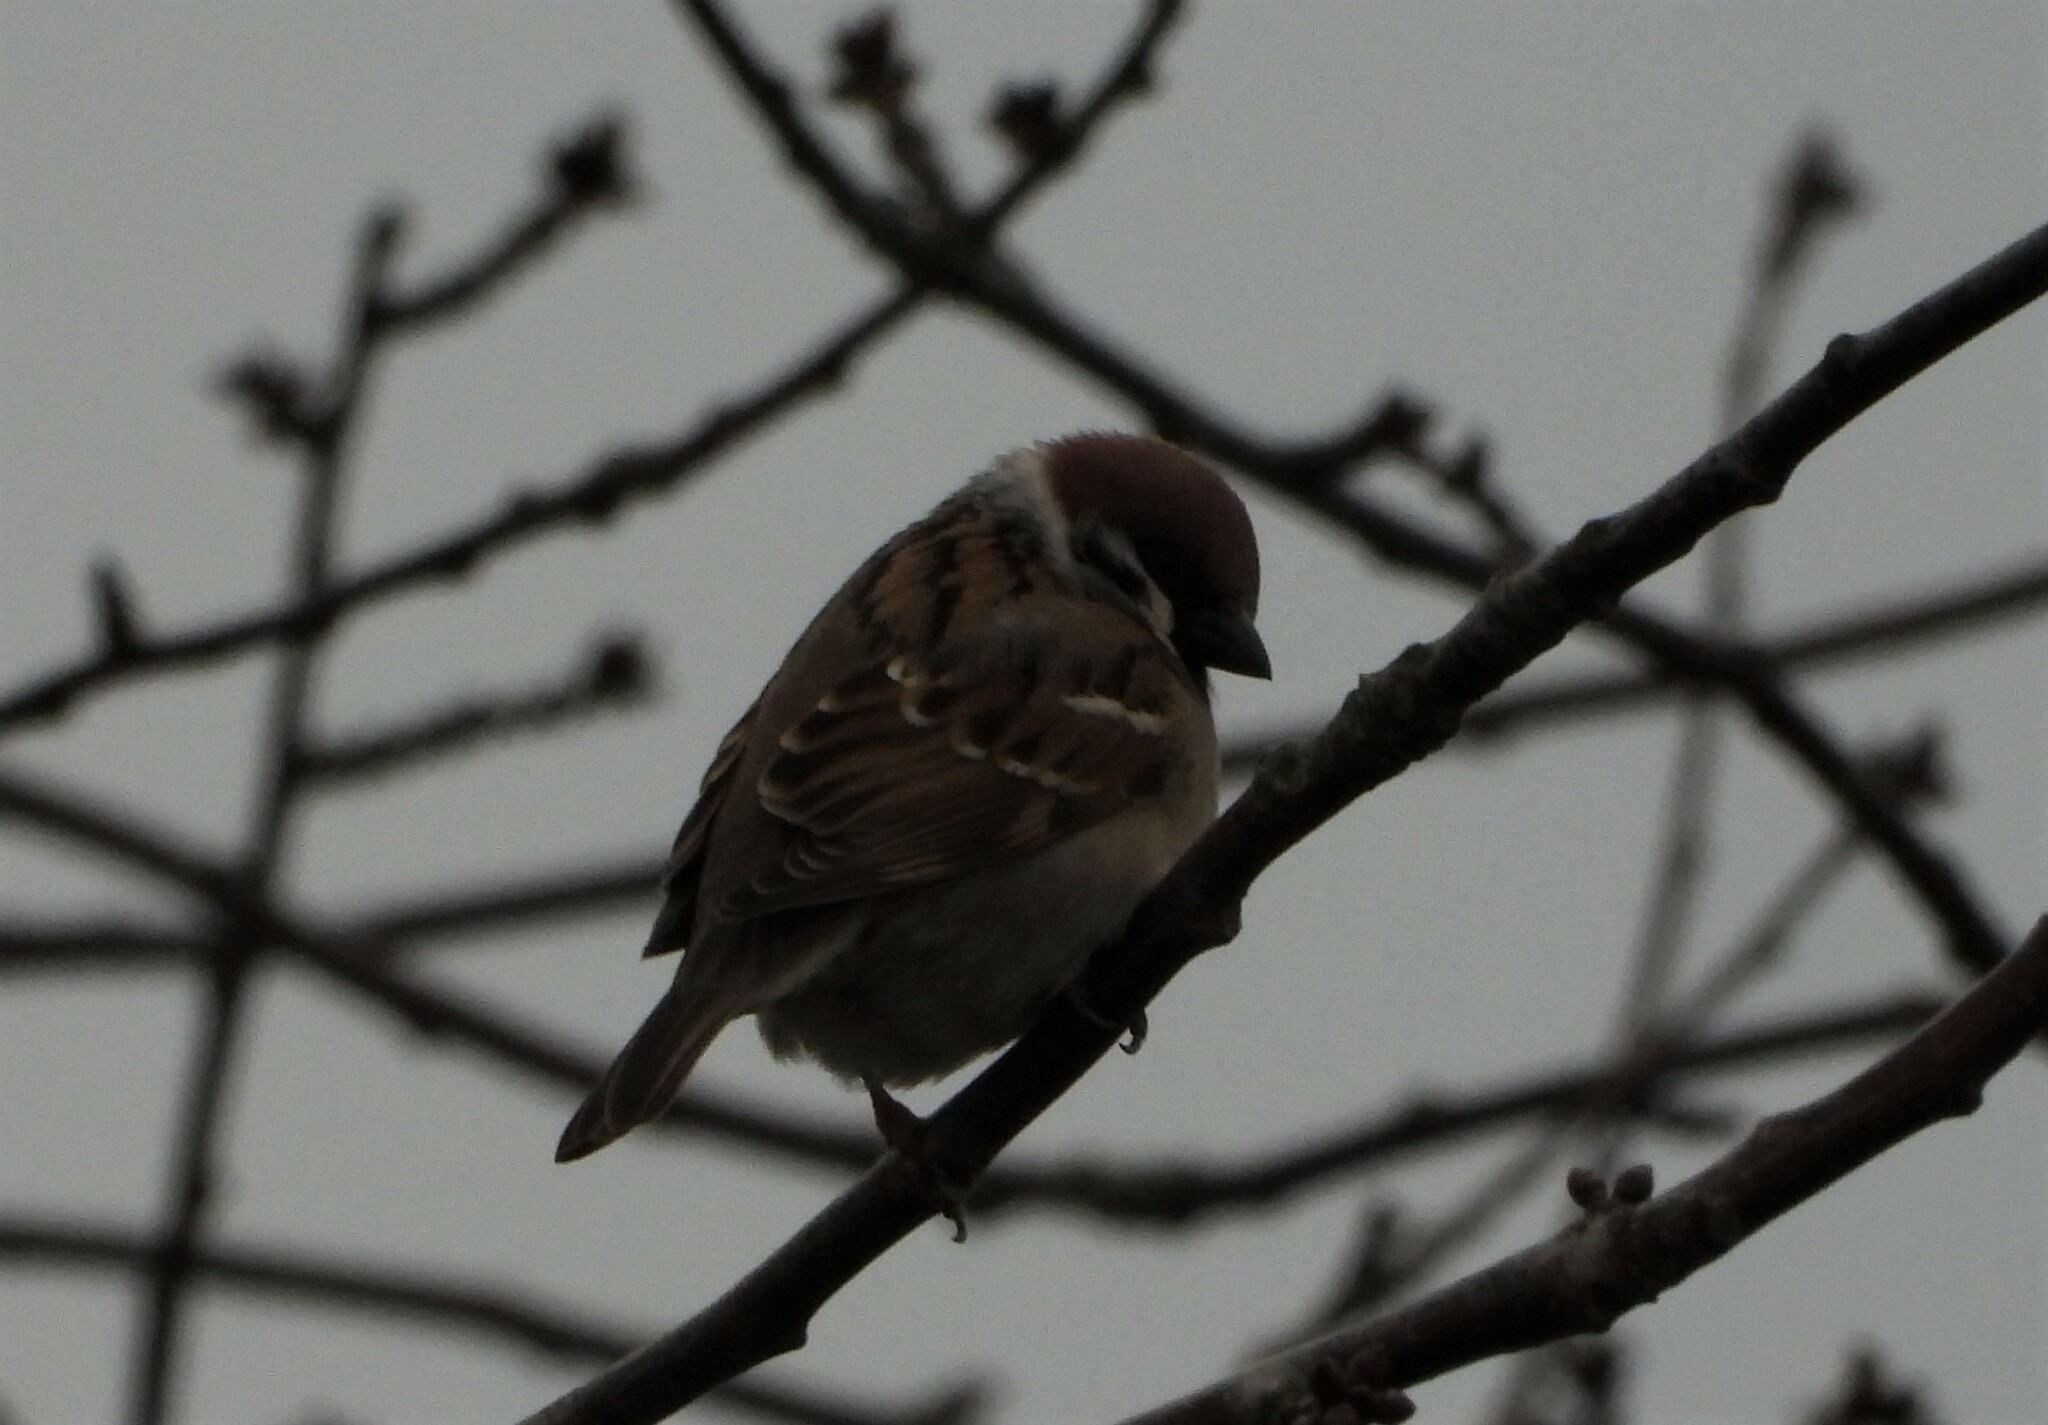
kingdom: Animalia
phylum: Chordata
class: Aves
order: Passeriformes
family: Passeridae
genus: Passer
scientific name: Passer montanus
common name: Eurasian tree sparrow
